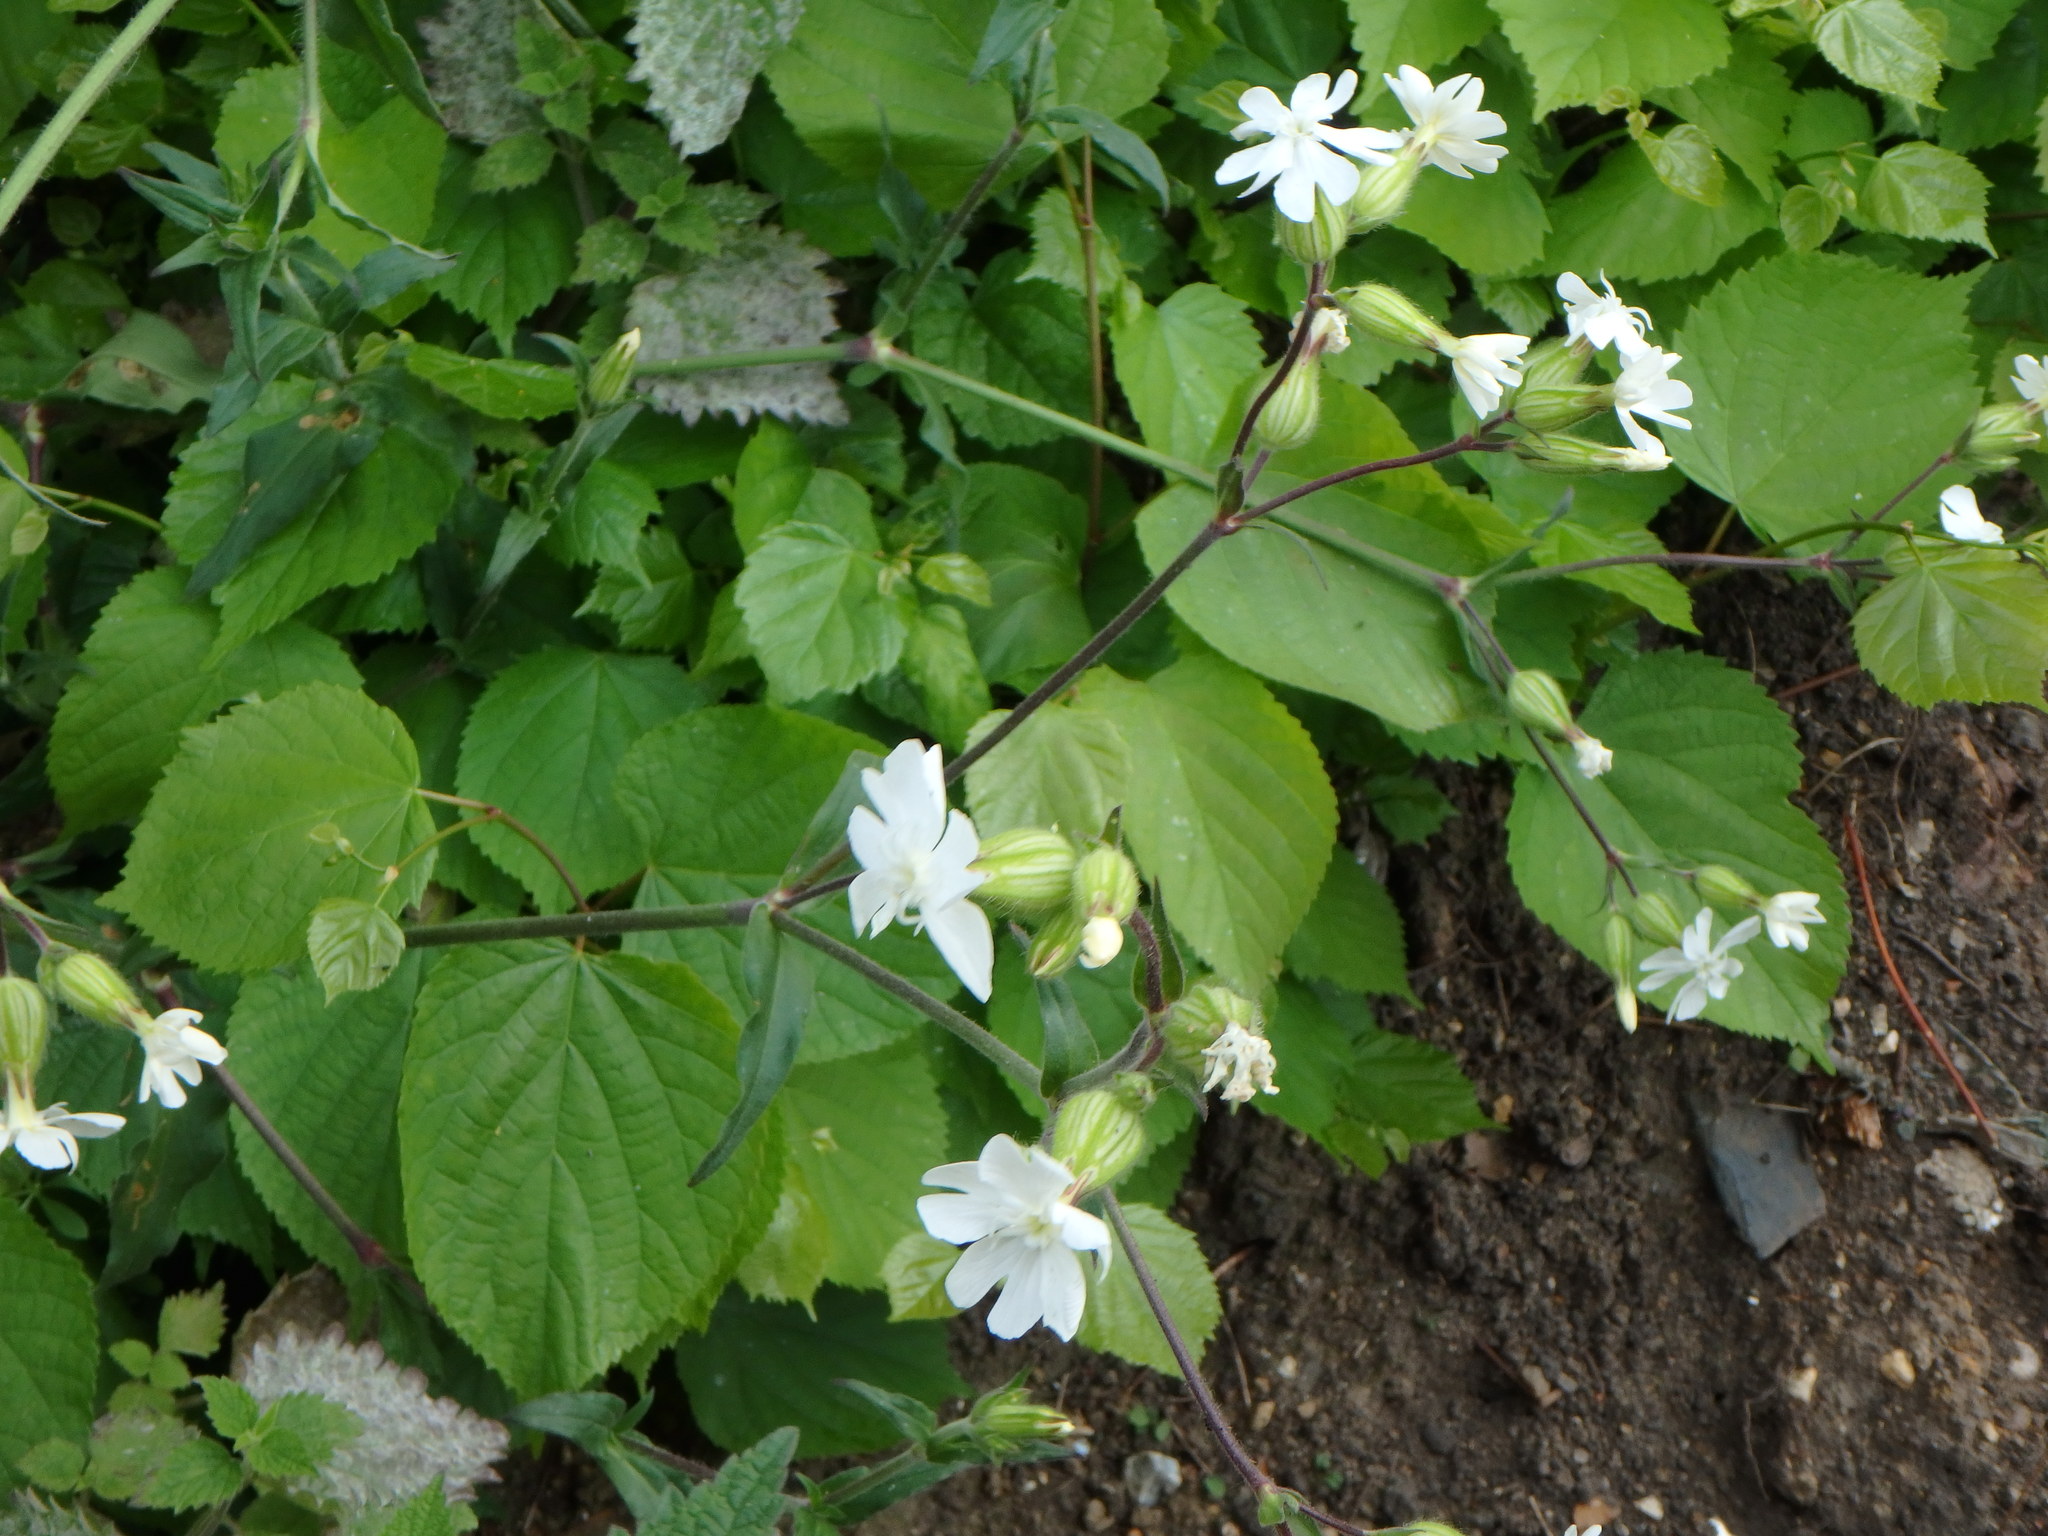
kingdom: Plantae
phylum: Tracheophyta
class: Magnoliopsida
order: Caryophyllales
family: Caryophyllaceae
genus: Silene
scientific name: Silene latifolia
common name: White campion
